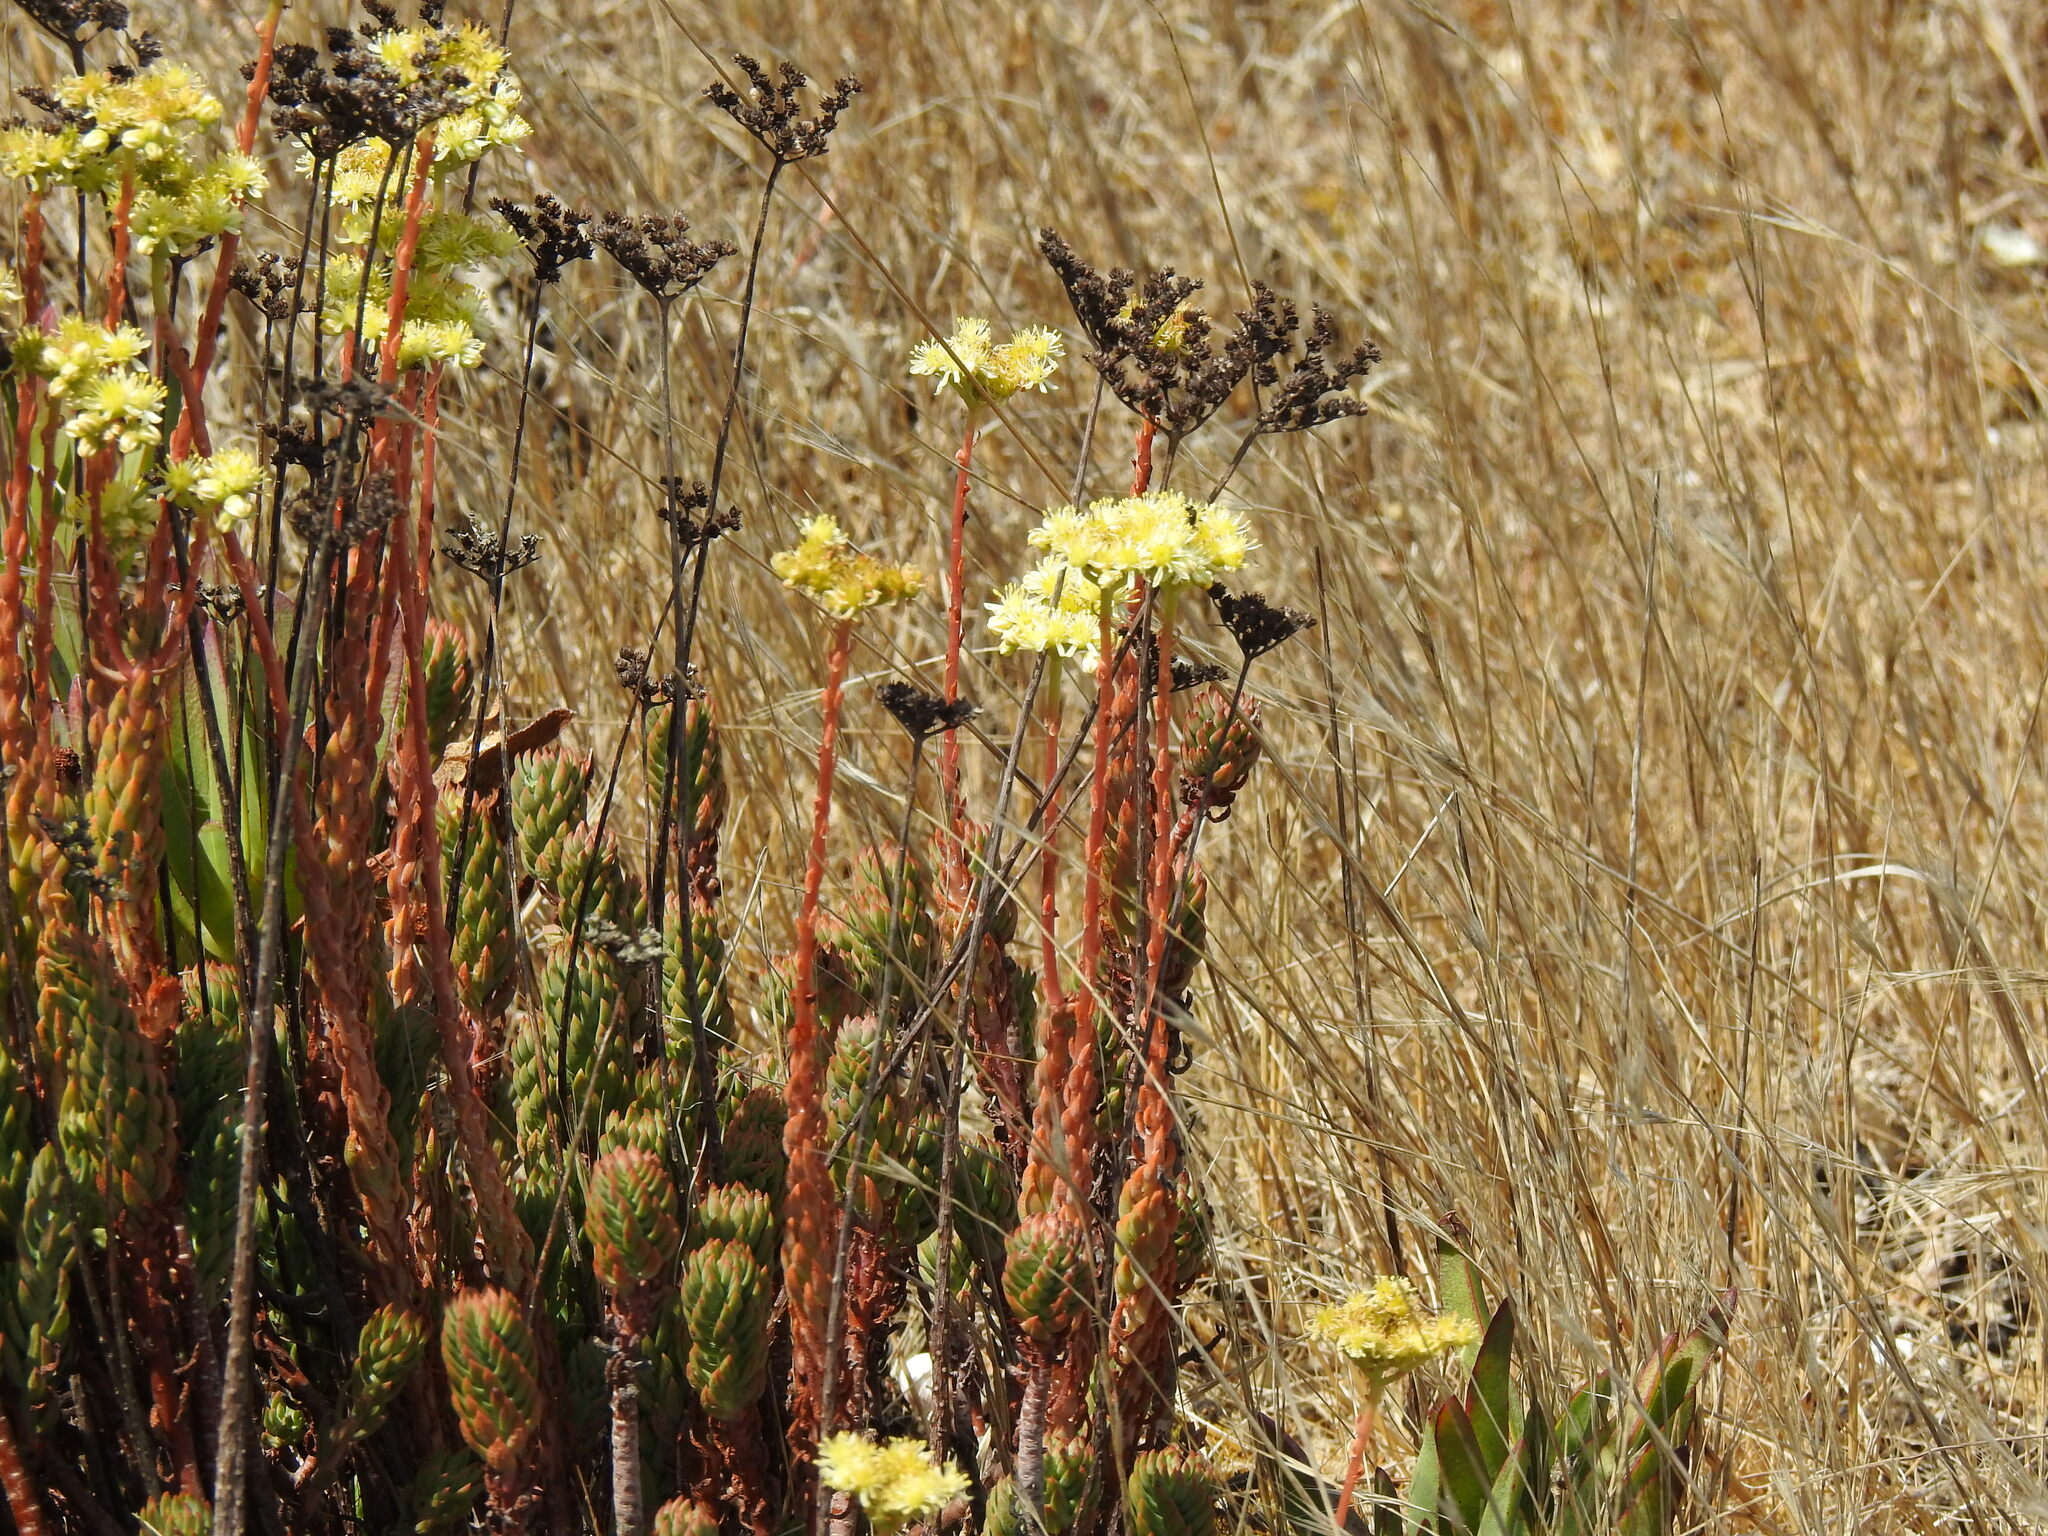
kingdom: Plantae
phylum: Tracheophyta
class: Magnoliopsida
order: Saxifragales
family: Crassulaceae
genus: Petrosedum
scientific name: Petrosedum sediforme
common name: Pale stonecrop
